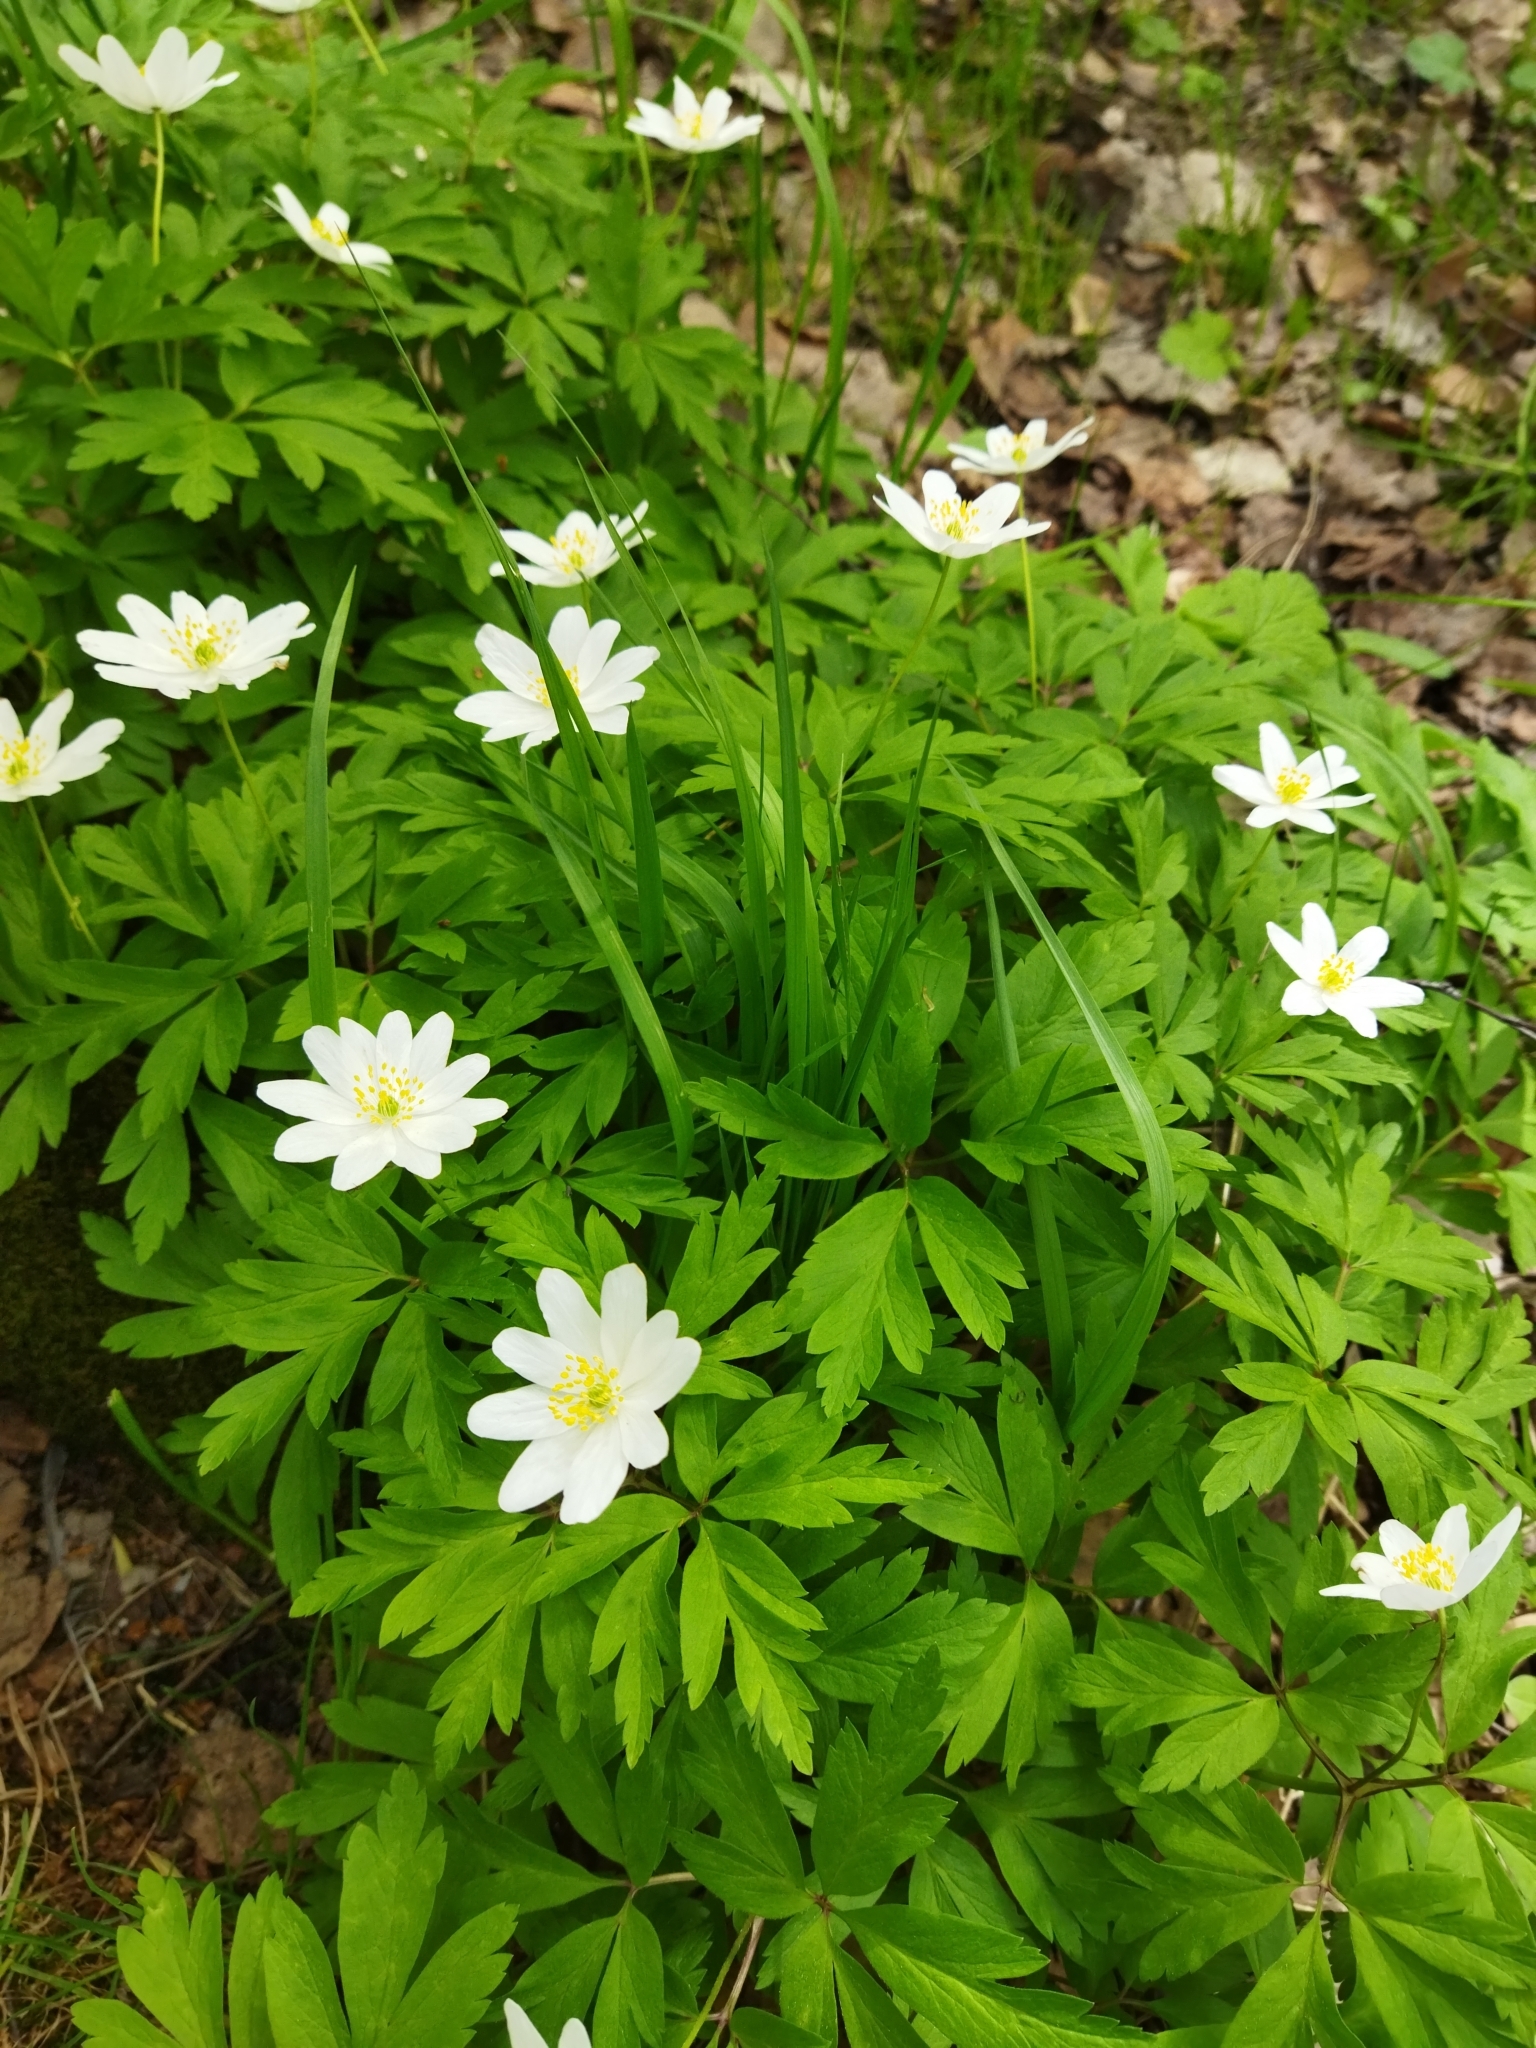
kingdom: Plantae
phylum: Tracheophyta
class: Magnoliopsida
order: Ranunculales
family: Ranunculaceae
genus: Anemone
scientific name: Anemone nemorosa
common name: Wood anemone
